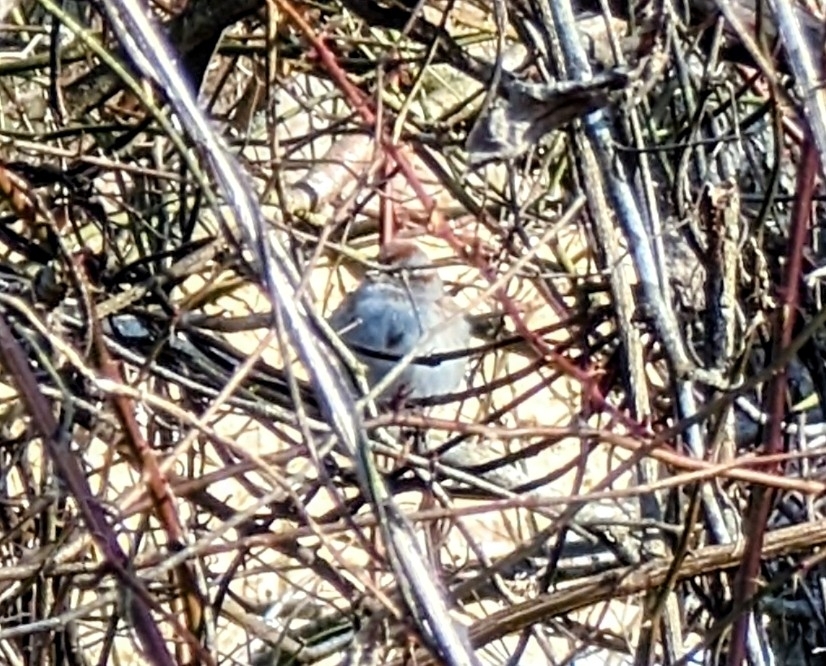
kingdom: Animalia
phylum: Chordata
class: Aves
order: Passeriformes
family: Passerellidae
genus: Spizelloides
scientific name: Spizelloides arborea
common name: American tree sparrow
